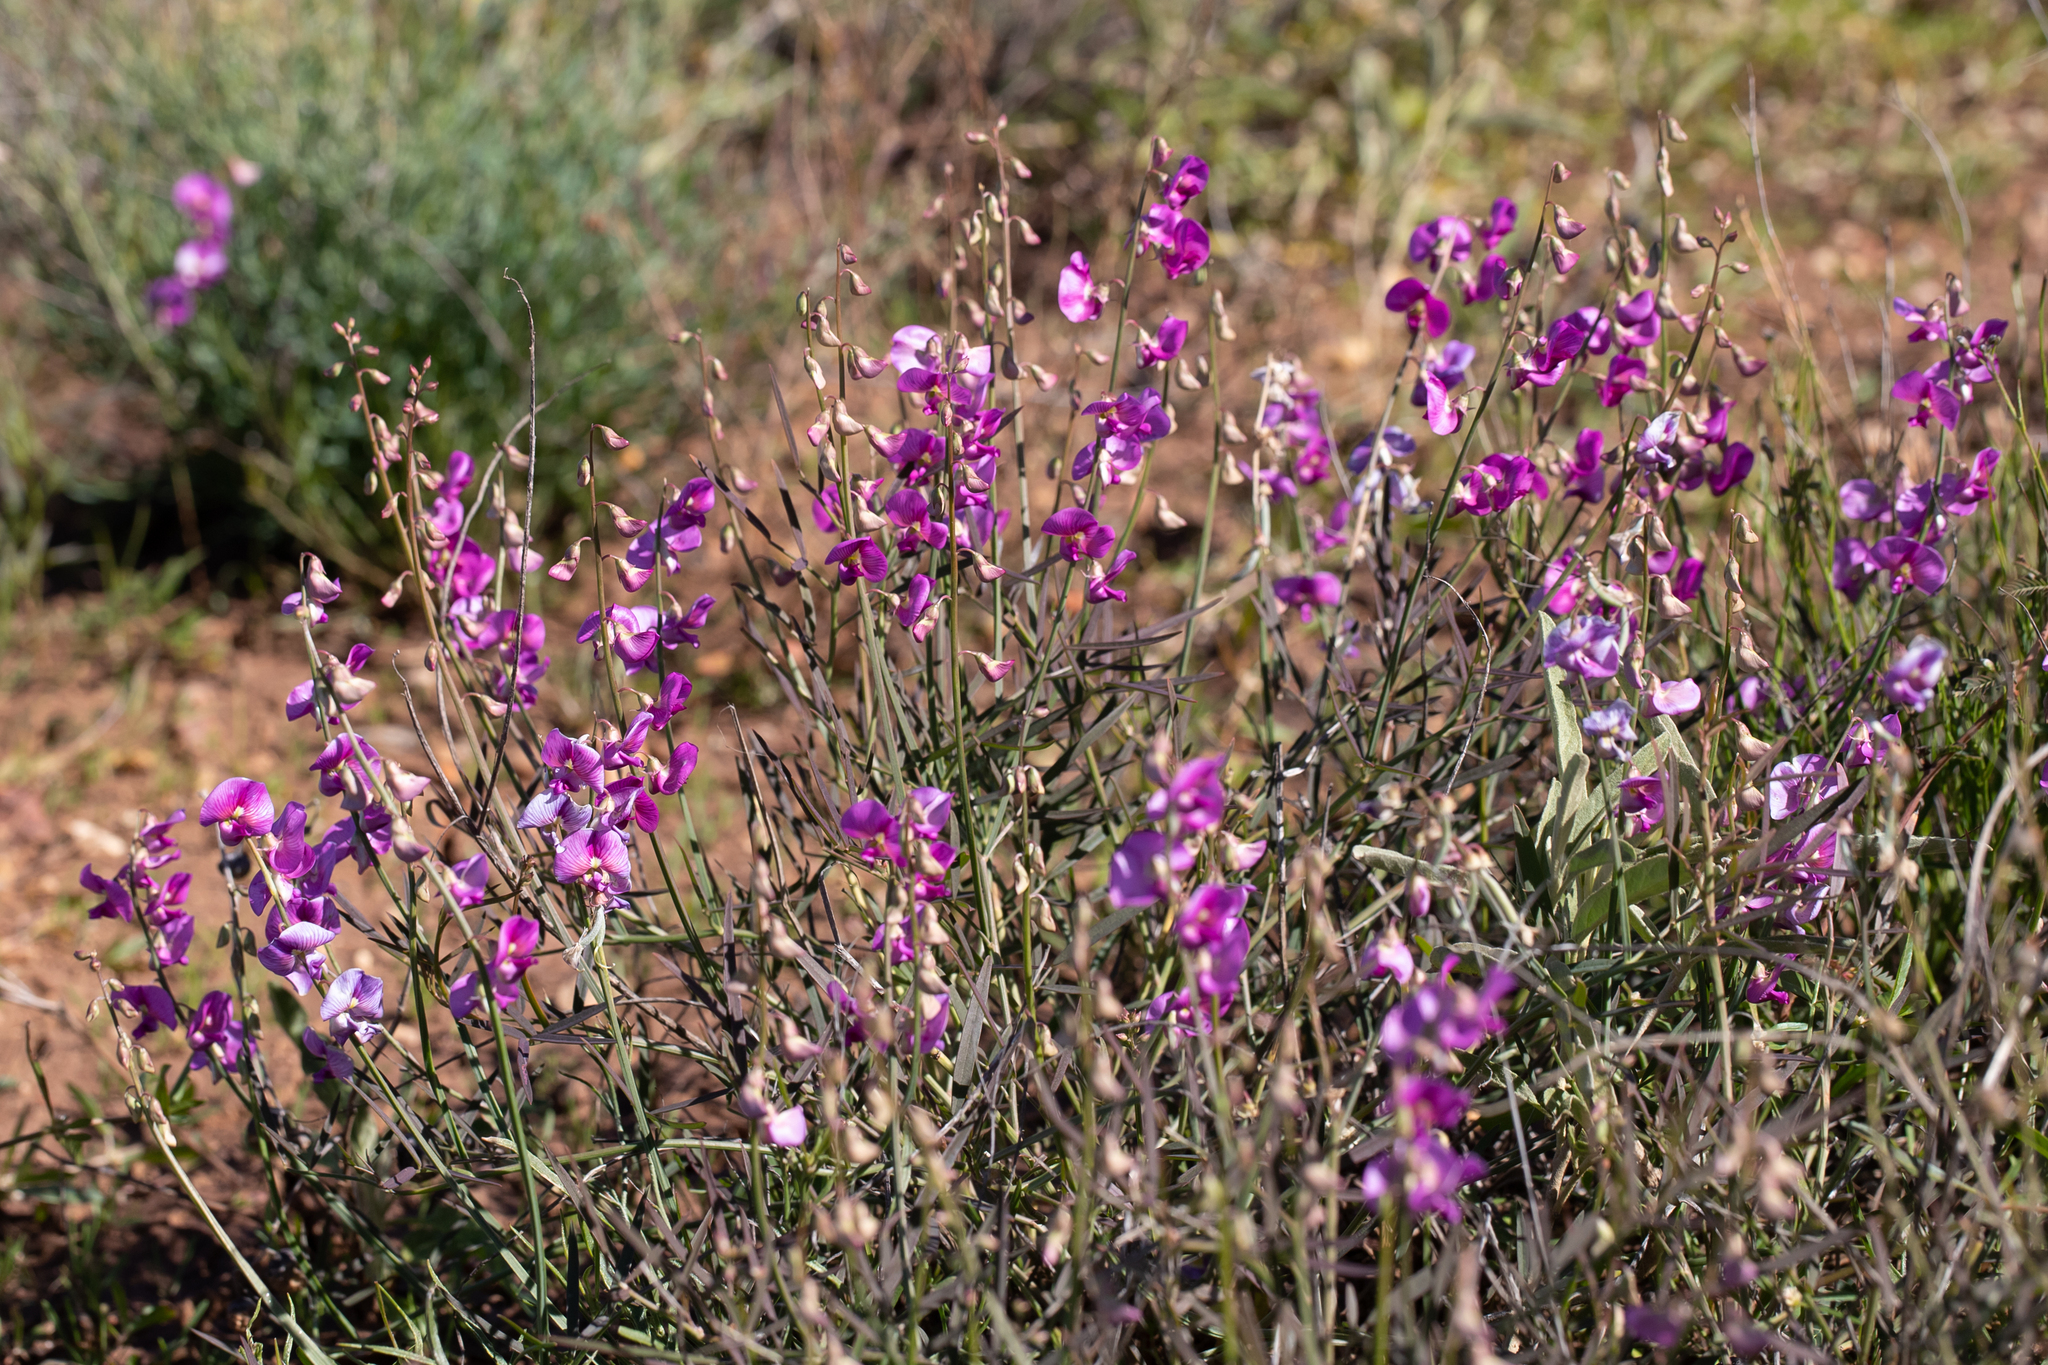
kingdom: Plantae
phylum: Tracheophyta
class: Magnoliopsida
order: Fabales
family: Fabaceae
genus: Swainsona
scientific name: Swainsona campylantha
